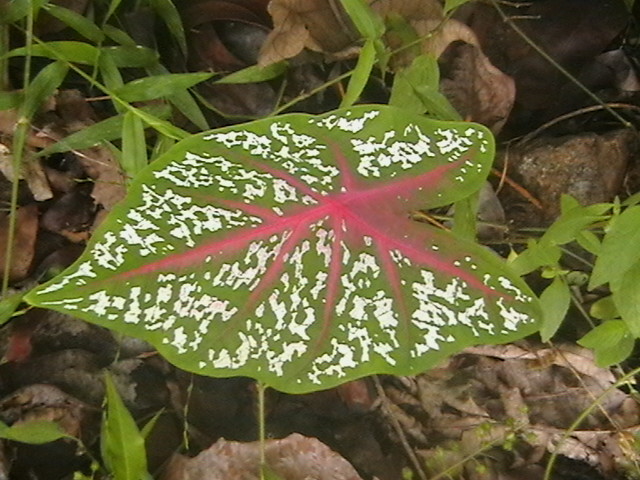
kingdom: Plantae
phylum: Tracheophyta
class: Liliopsida
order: Alismatales
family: Araceae
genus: Caladium
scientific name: Caladium bicolor
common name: Artist's pallet
